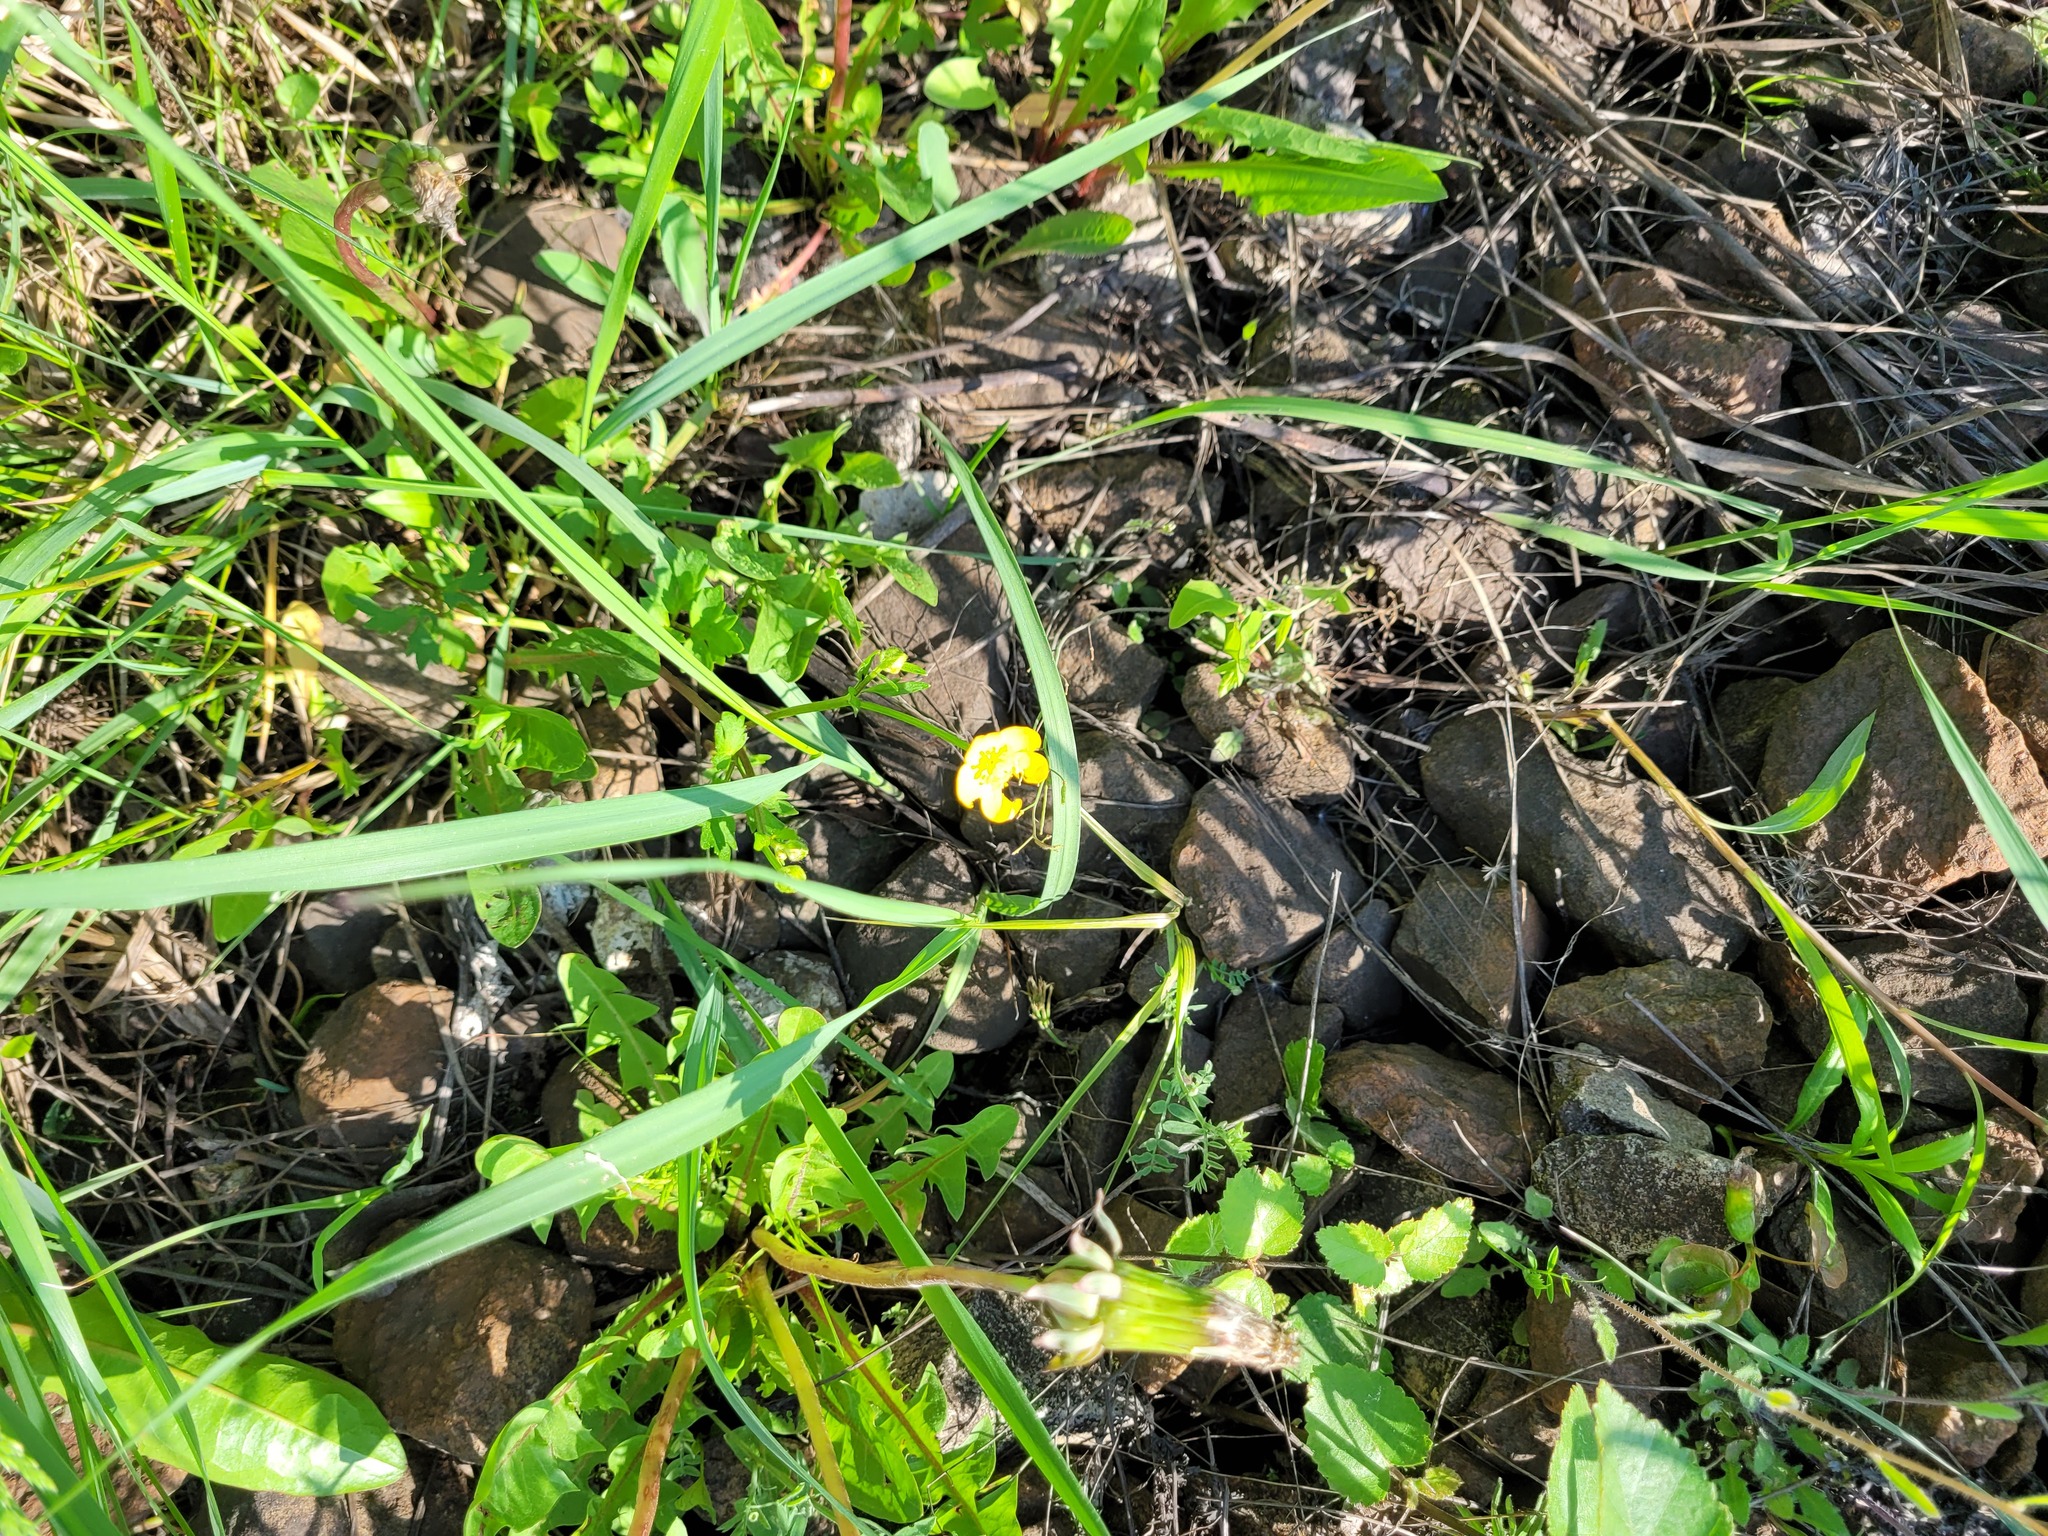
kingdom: Plantae
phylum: Tracheophyta
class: Magnoliopsida
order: Ranunculales
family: Ranunculaceae
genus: Ranunculus
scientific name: Ranunculus repens
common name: Creeping buttercup
